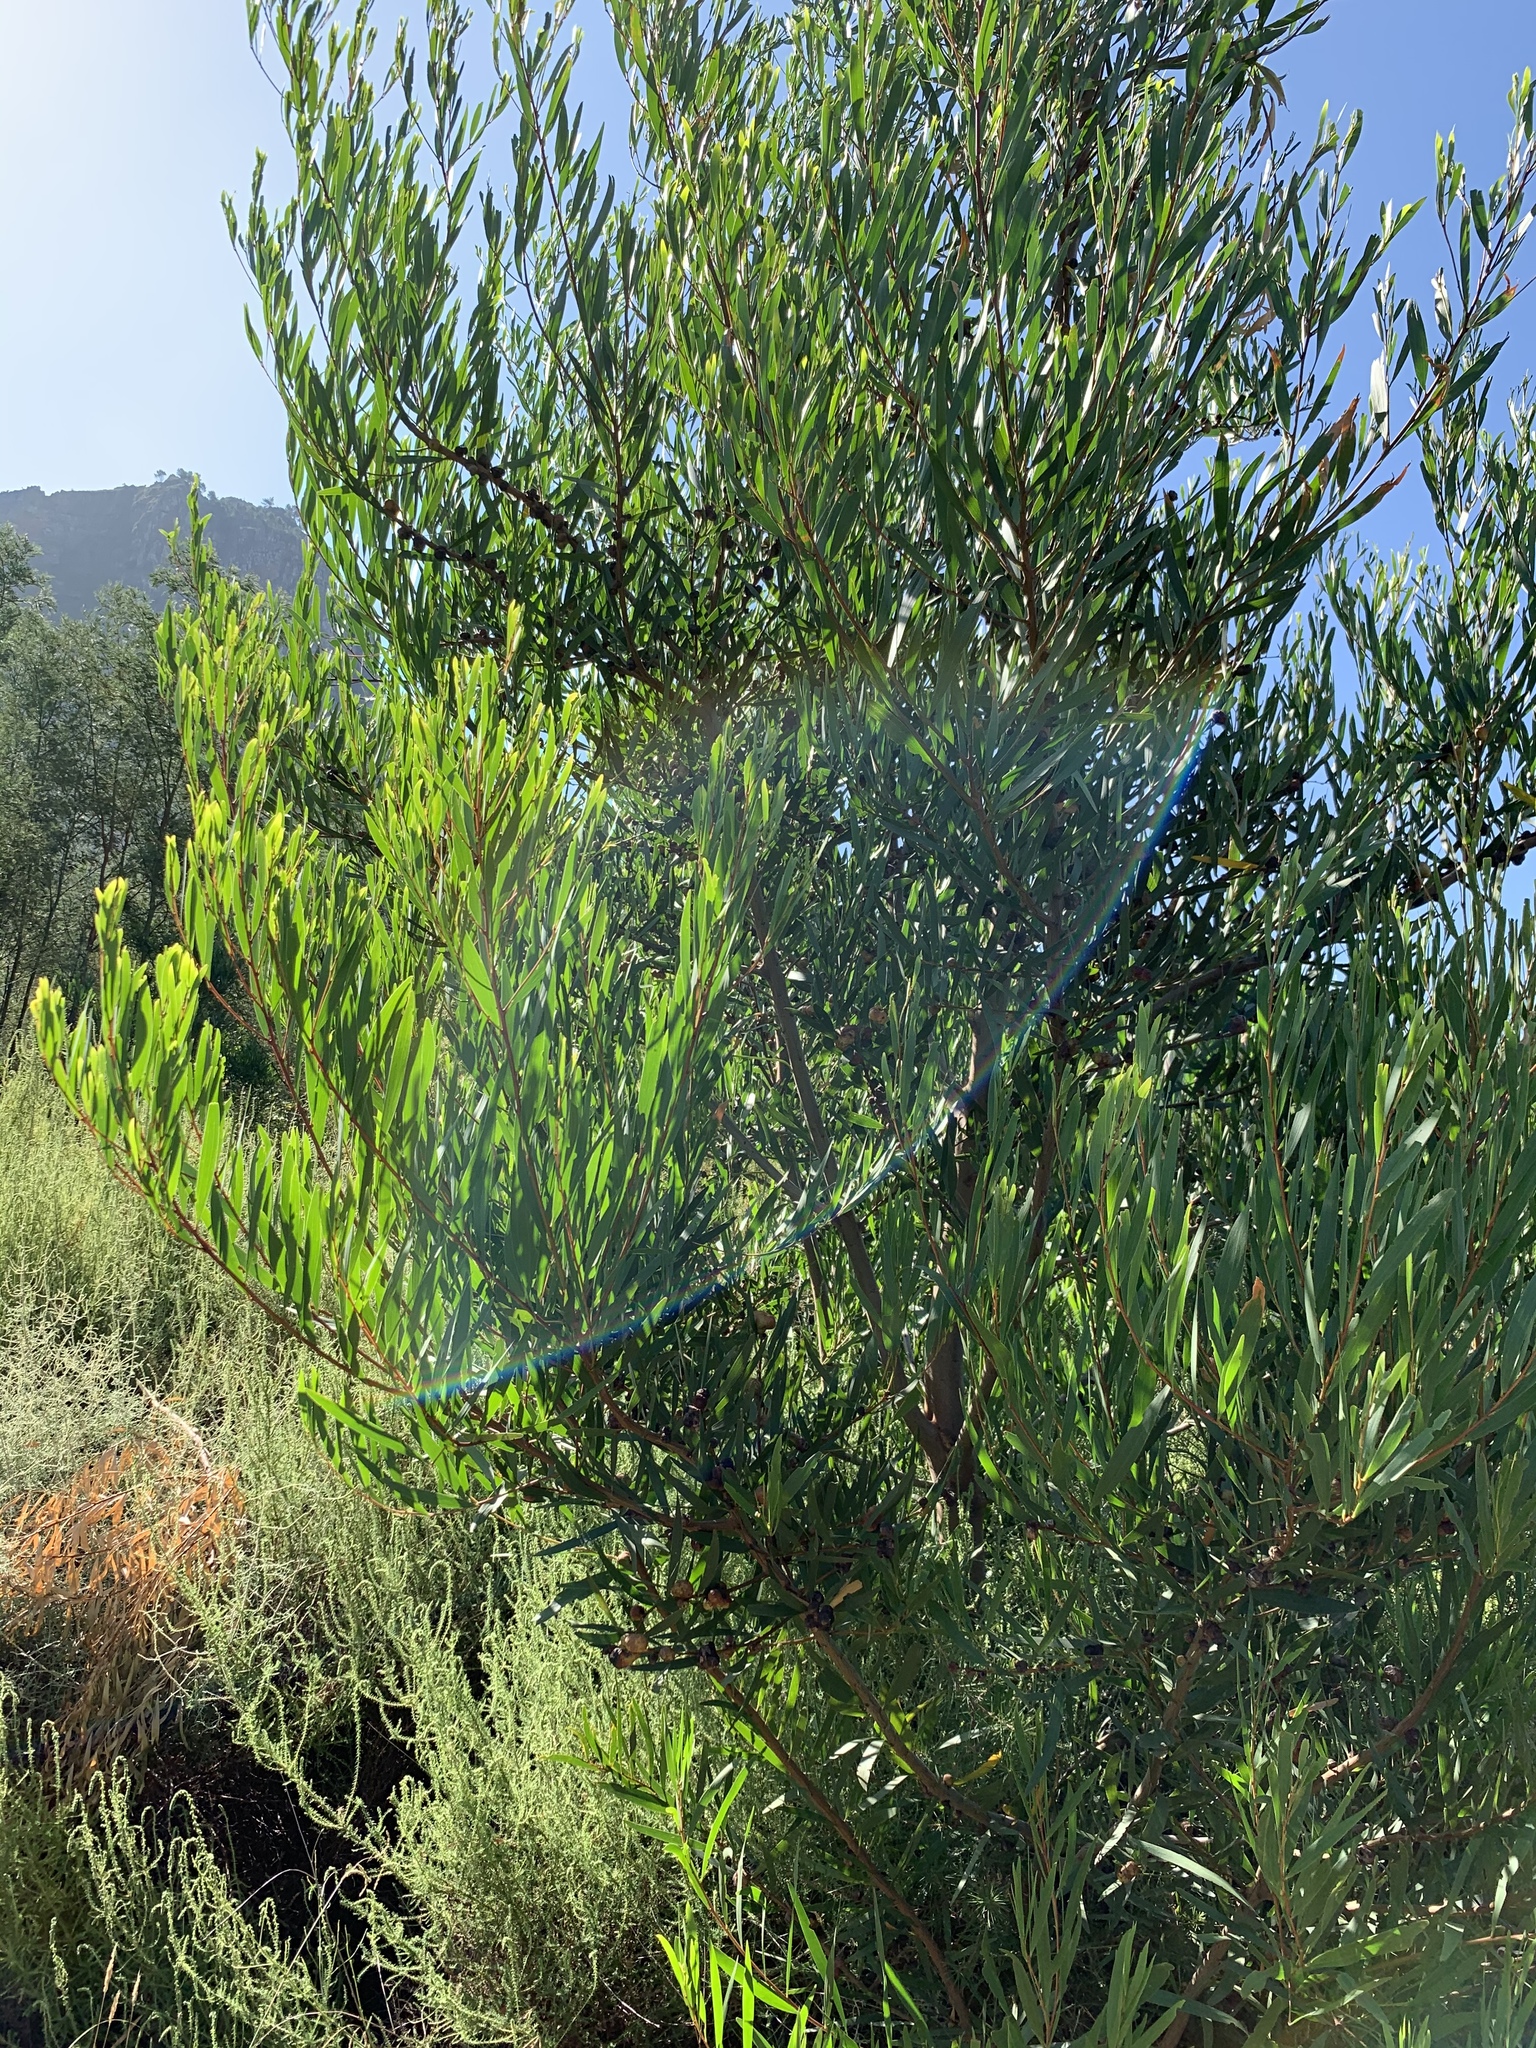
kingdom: Plantae
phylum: Tracheophyta
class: Magnoliopsida
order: Fabales
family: Fabaceae
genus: Acacia
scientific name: Acacia longifolia
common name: Sydney golden wattle
